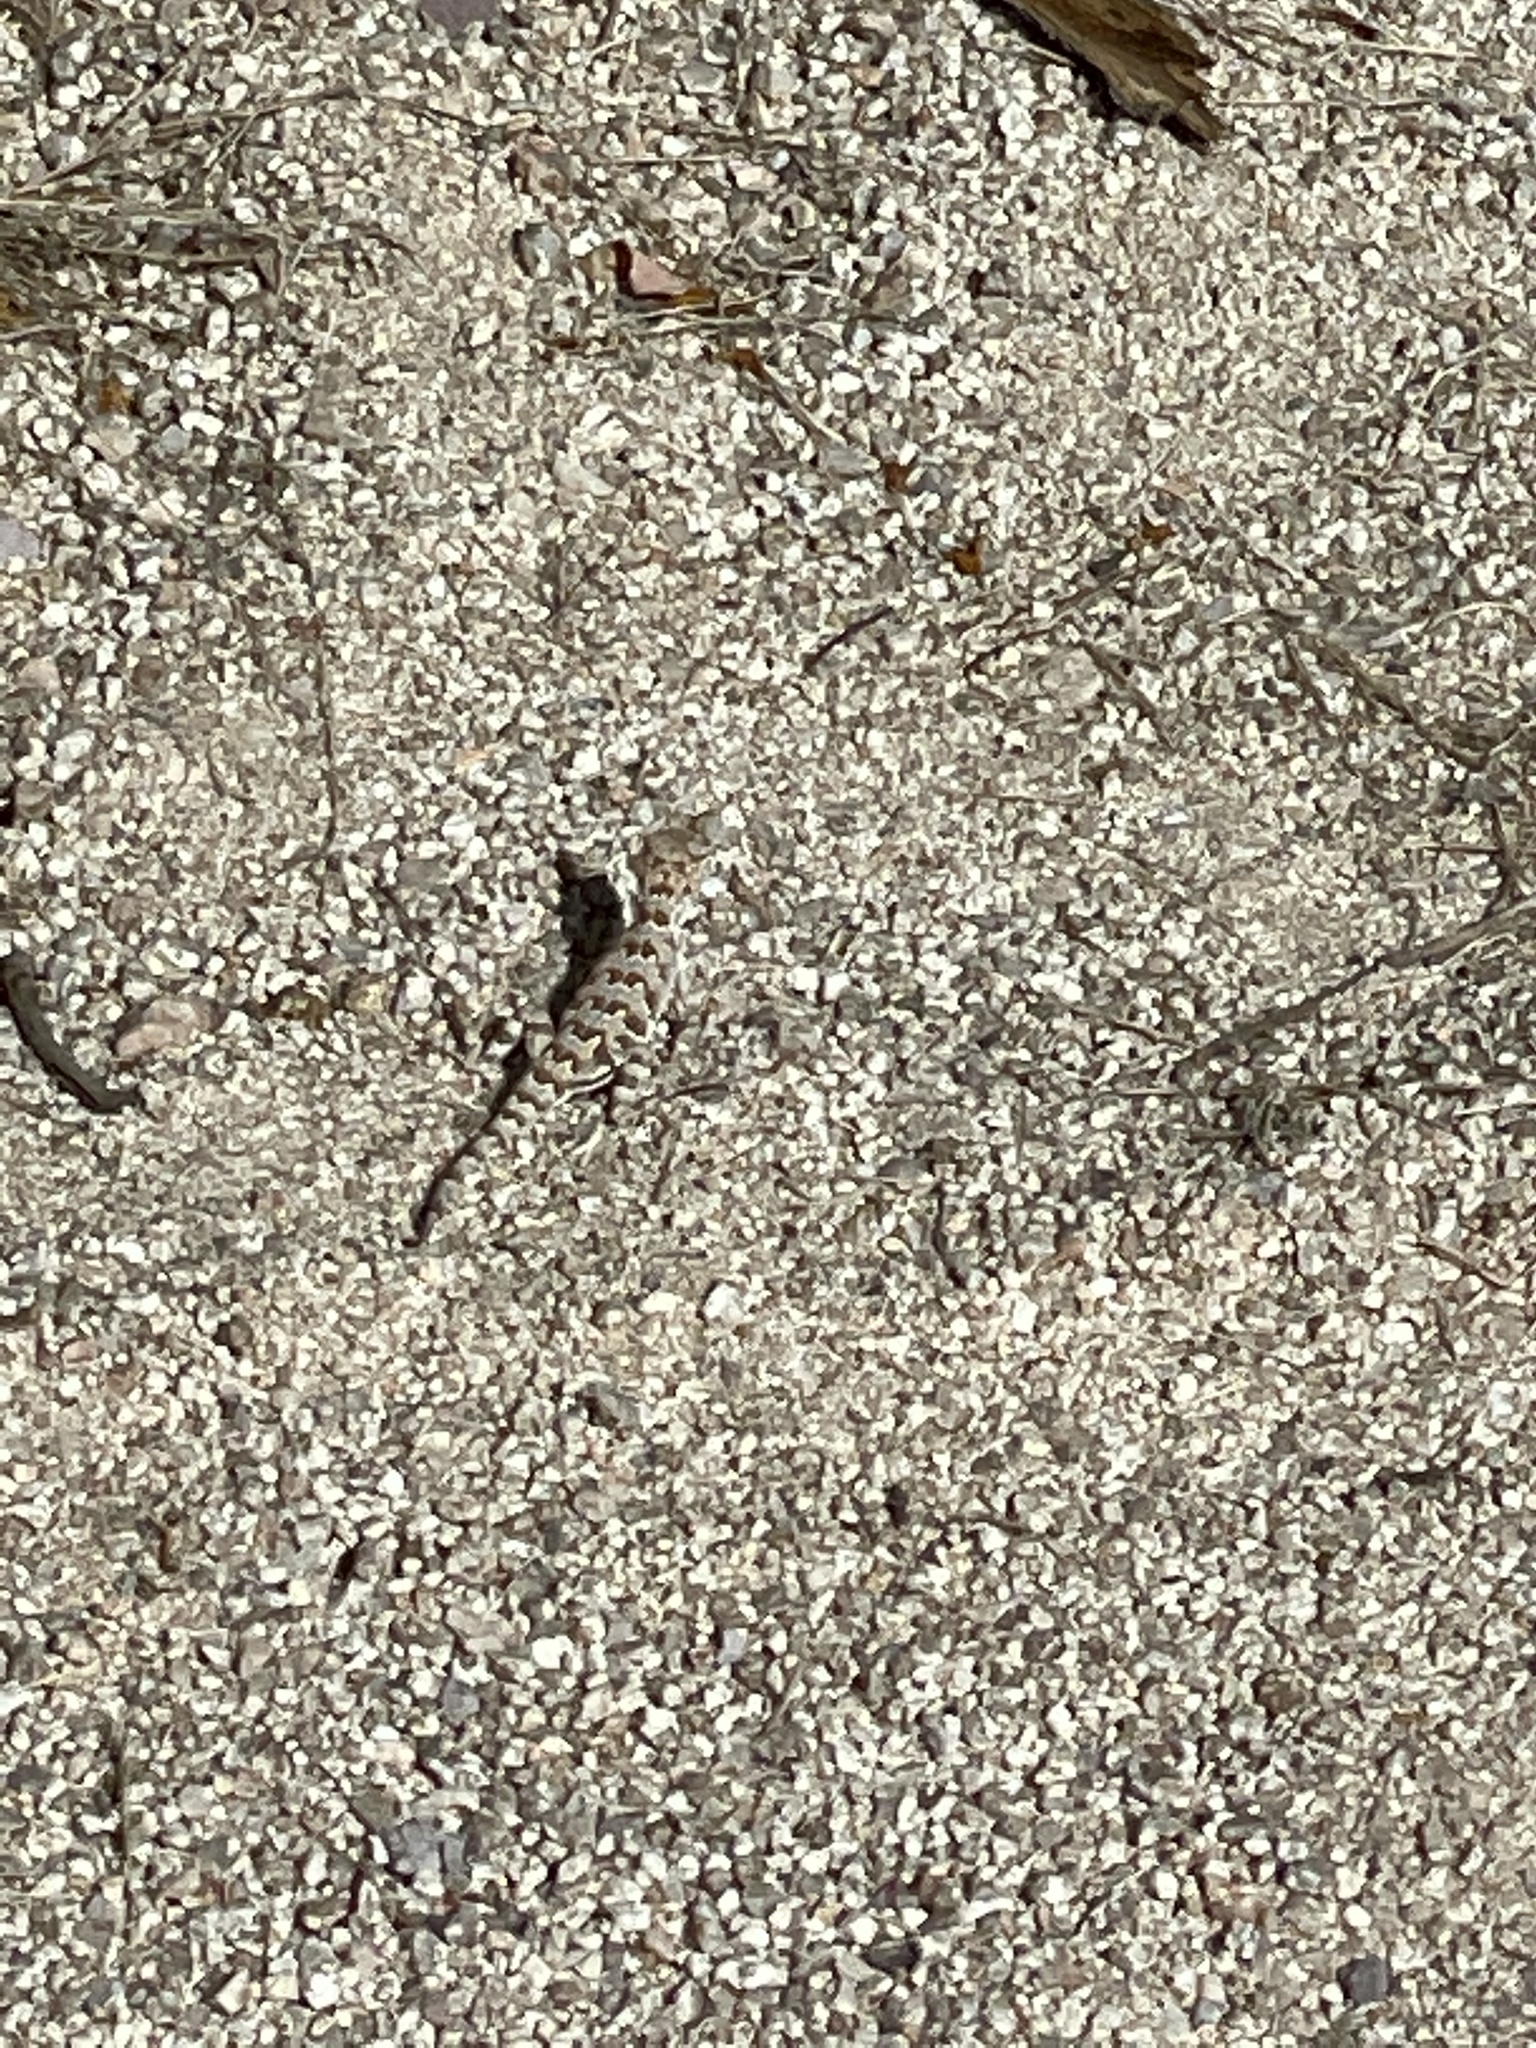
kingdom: Animalia
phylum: Chordata
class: Squamata
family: Phrynosomatidae
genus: Callisaurus
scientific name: Callisaurus draconoides
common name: Zebra-tailed lizard
